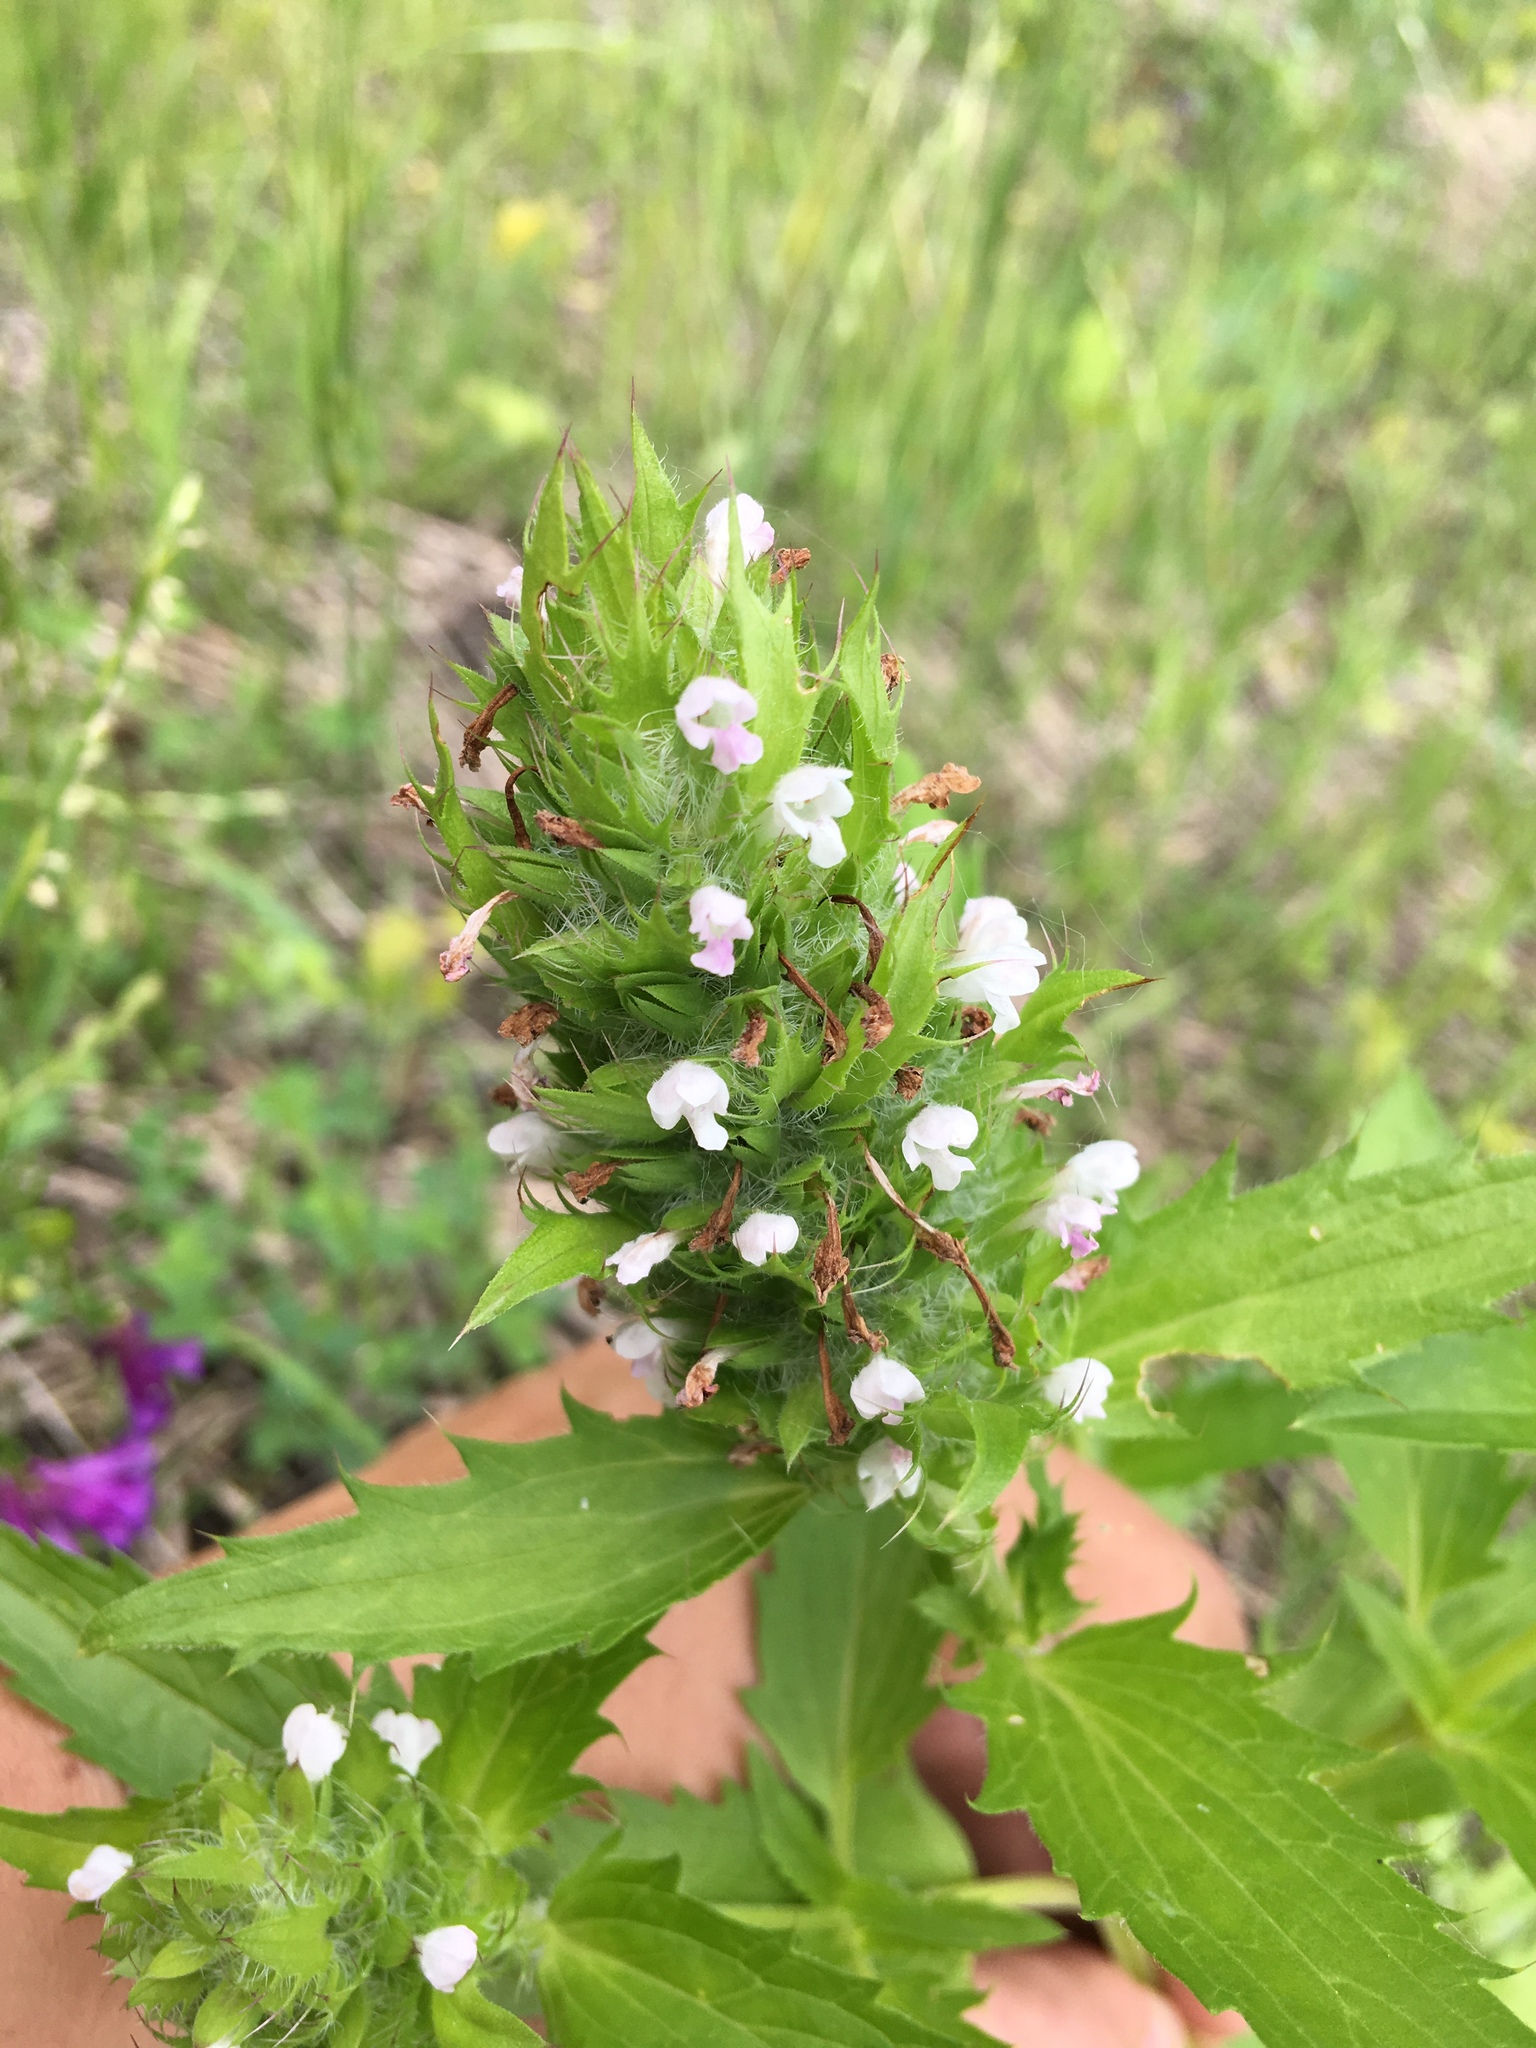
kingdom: Plantae
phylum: Tracheophyta
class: Magnoliopsida
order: Lamiales
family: Lamiaceae
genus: Dracocephalum
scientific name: Dracocephalum parviflorum
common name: American dragonhead
